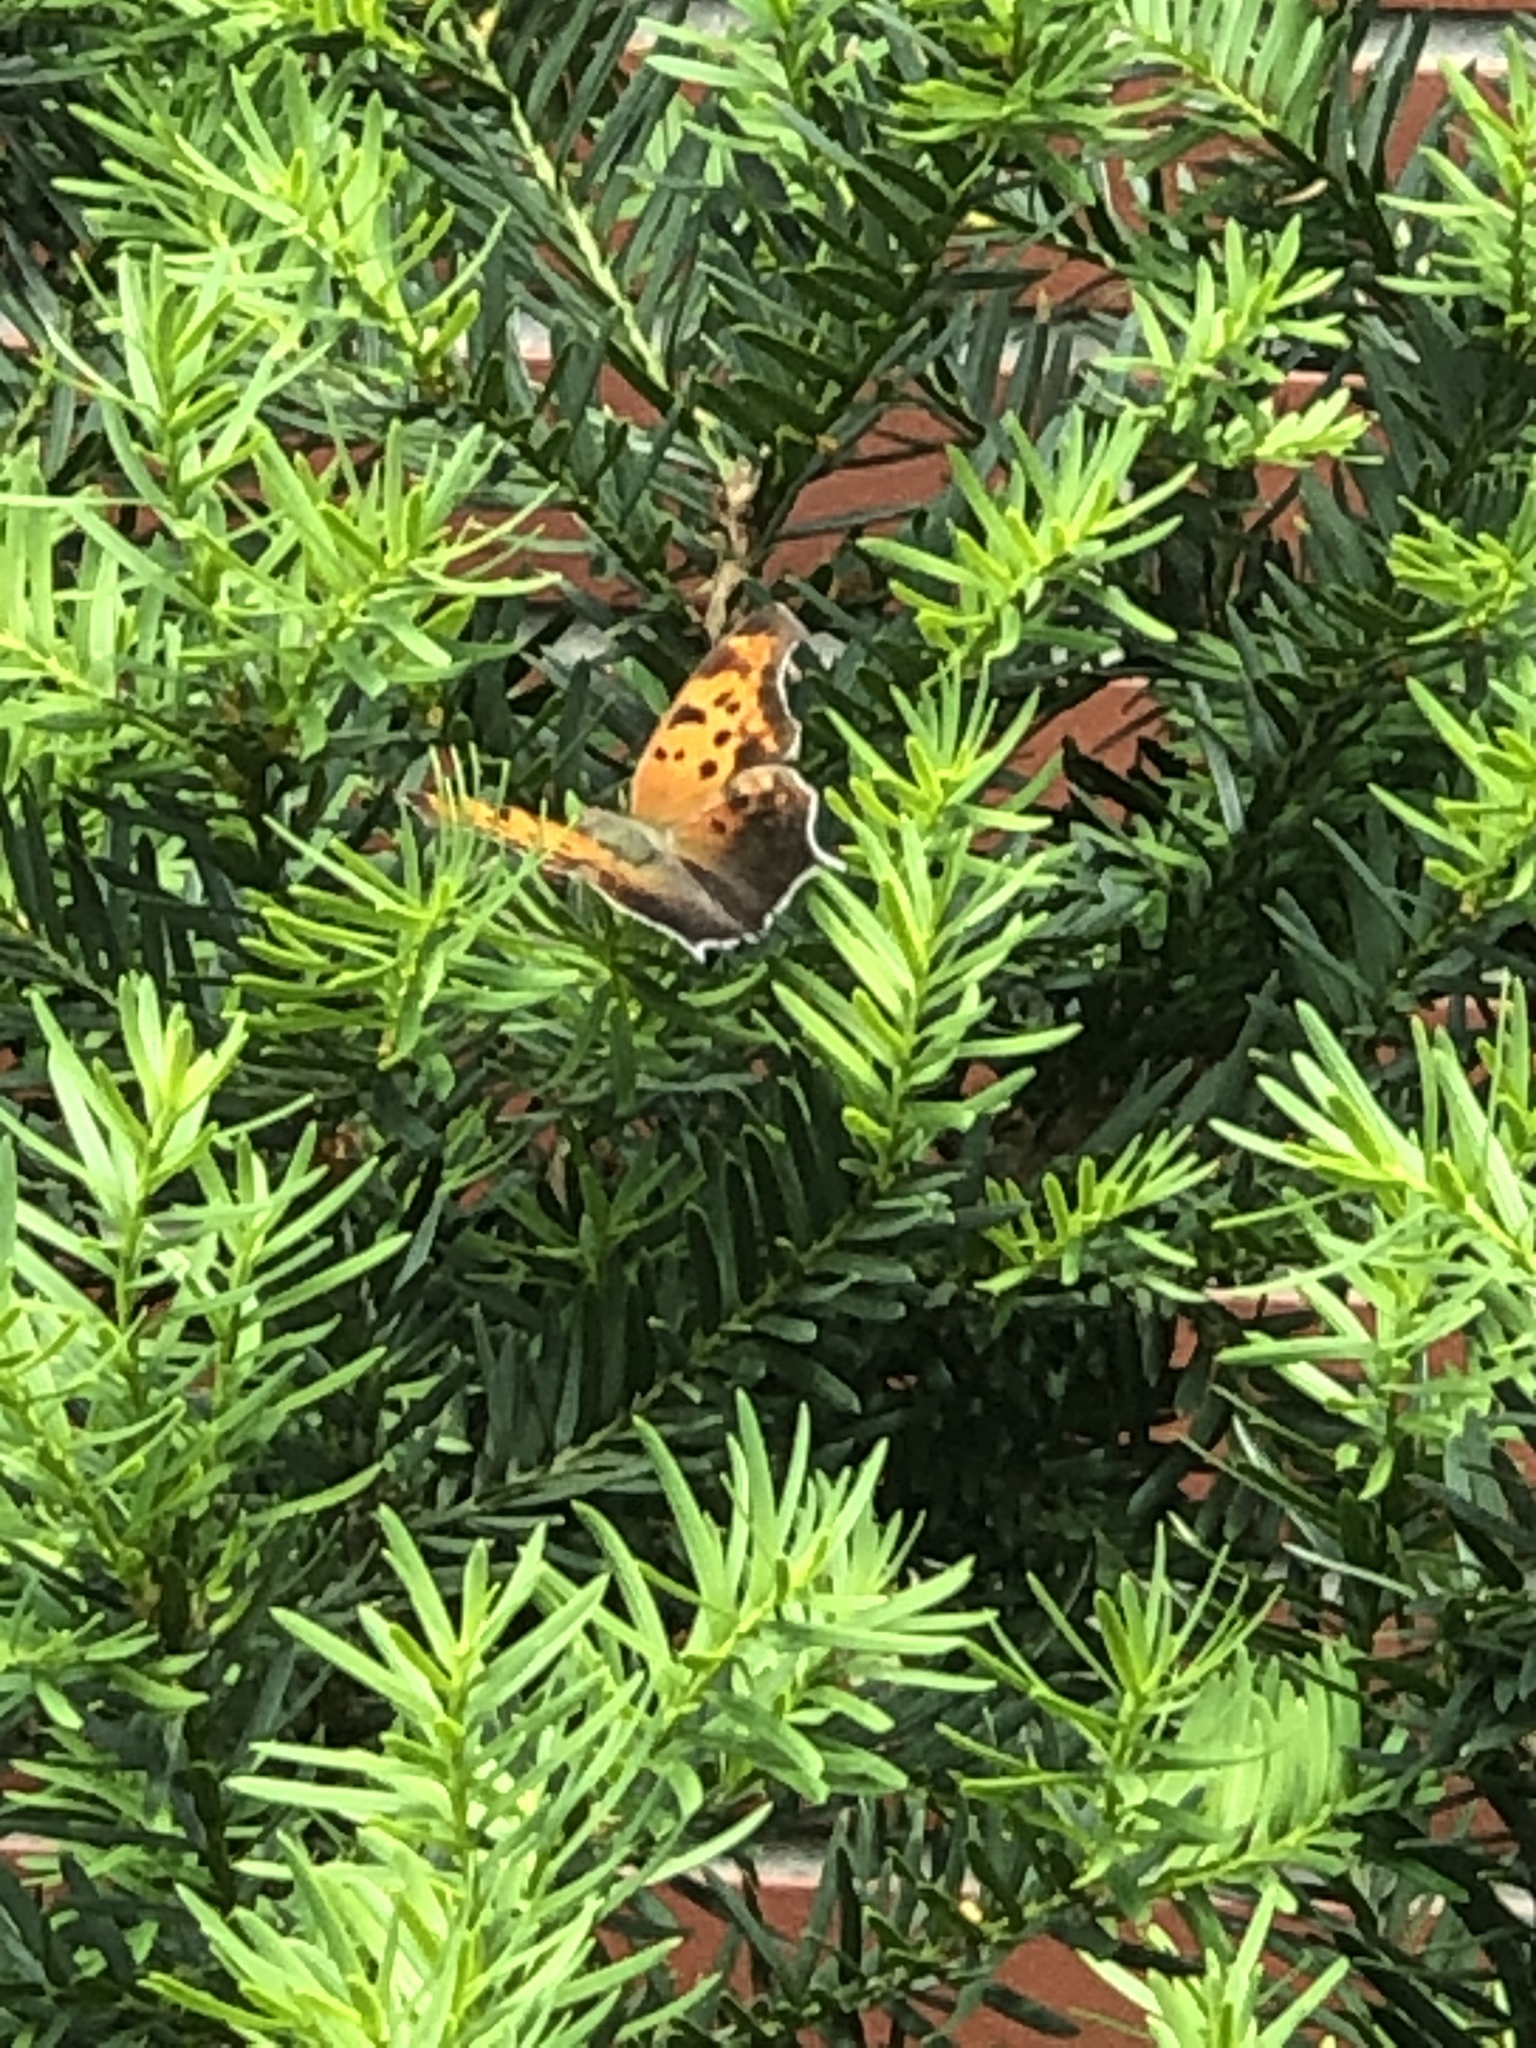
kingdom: Animalia
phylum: Arthropoda
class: Insecta
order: Lepidoptera
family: Nymphalidae
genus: Polygonia
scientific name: Polygonia interrogationis
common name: Question mark
